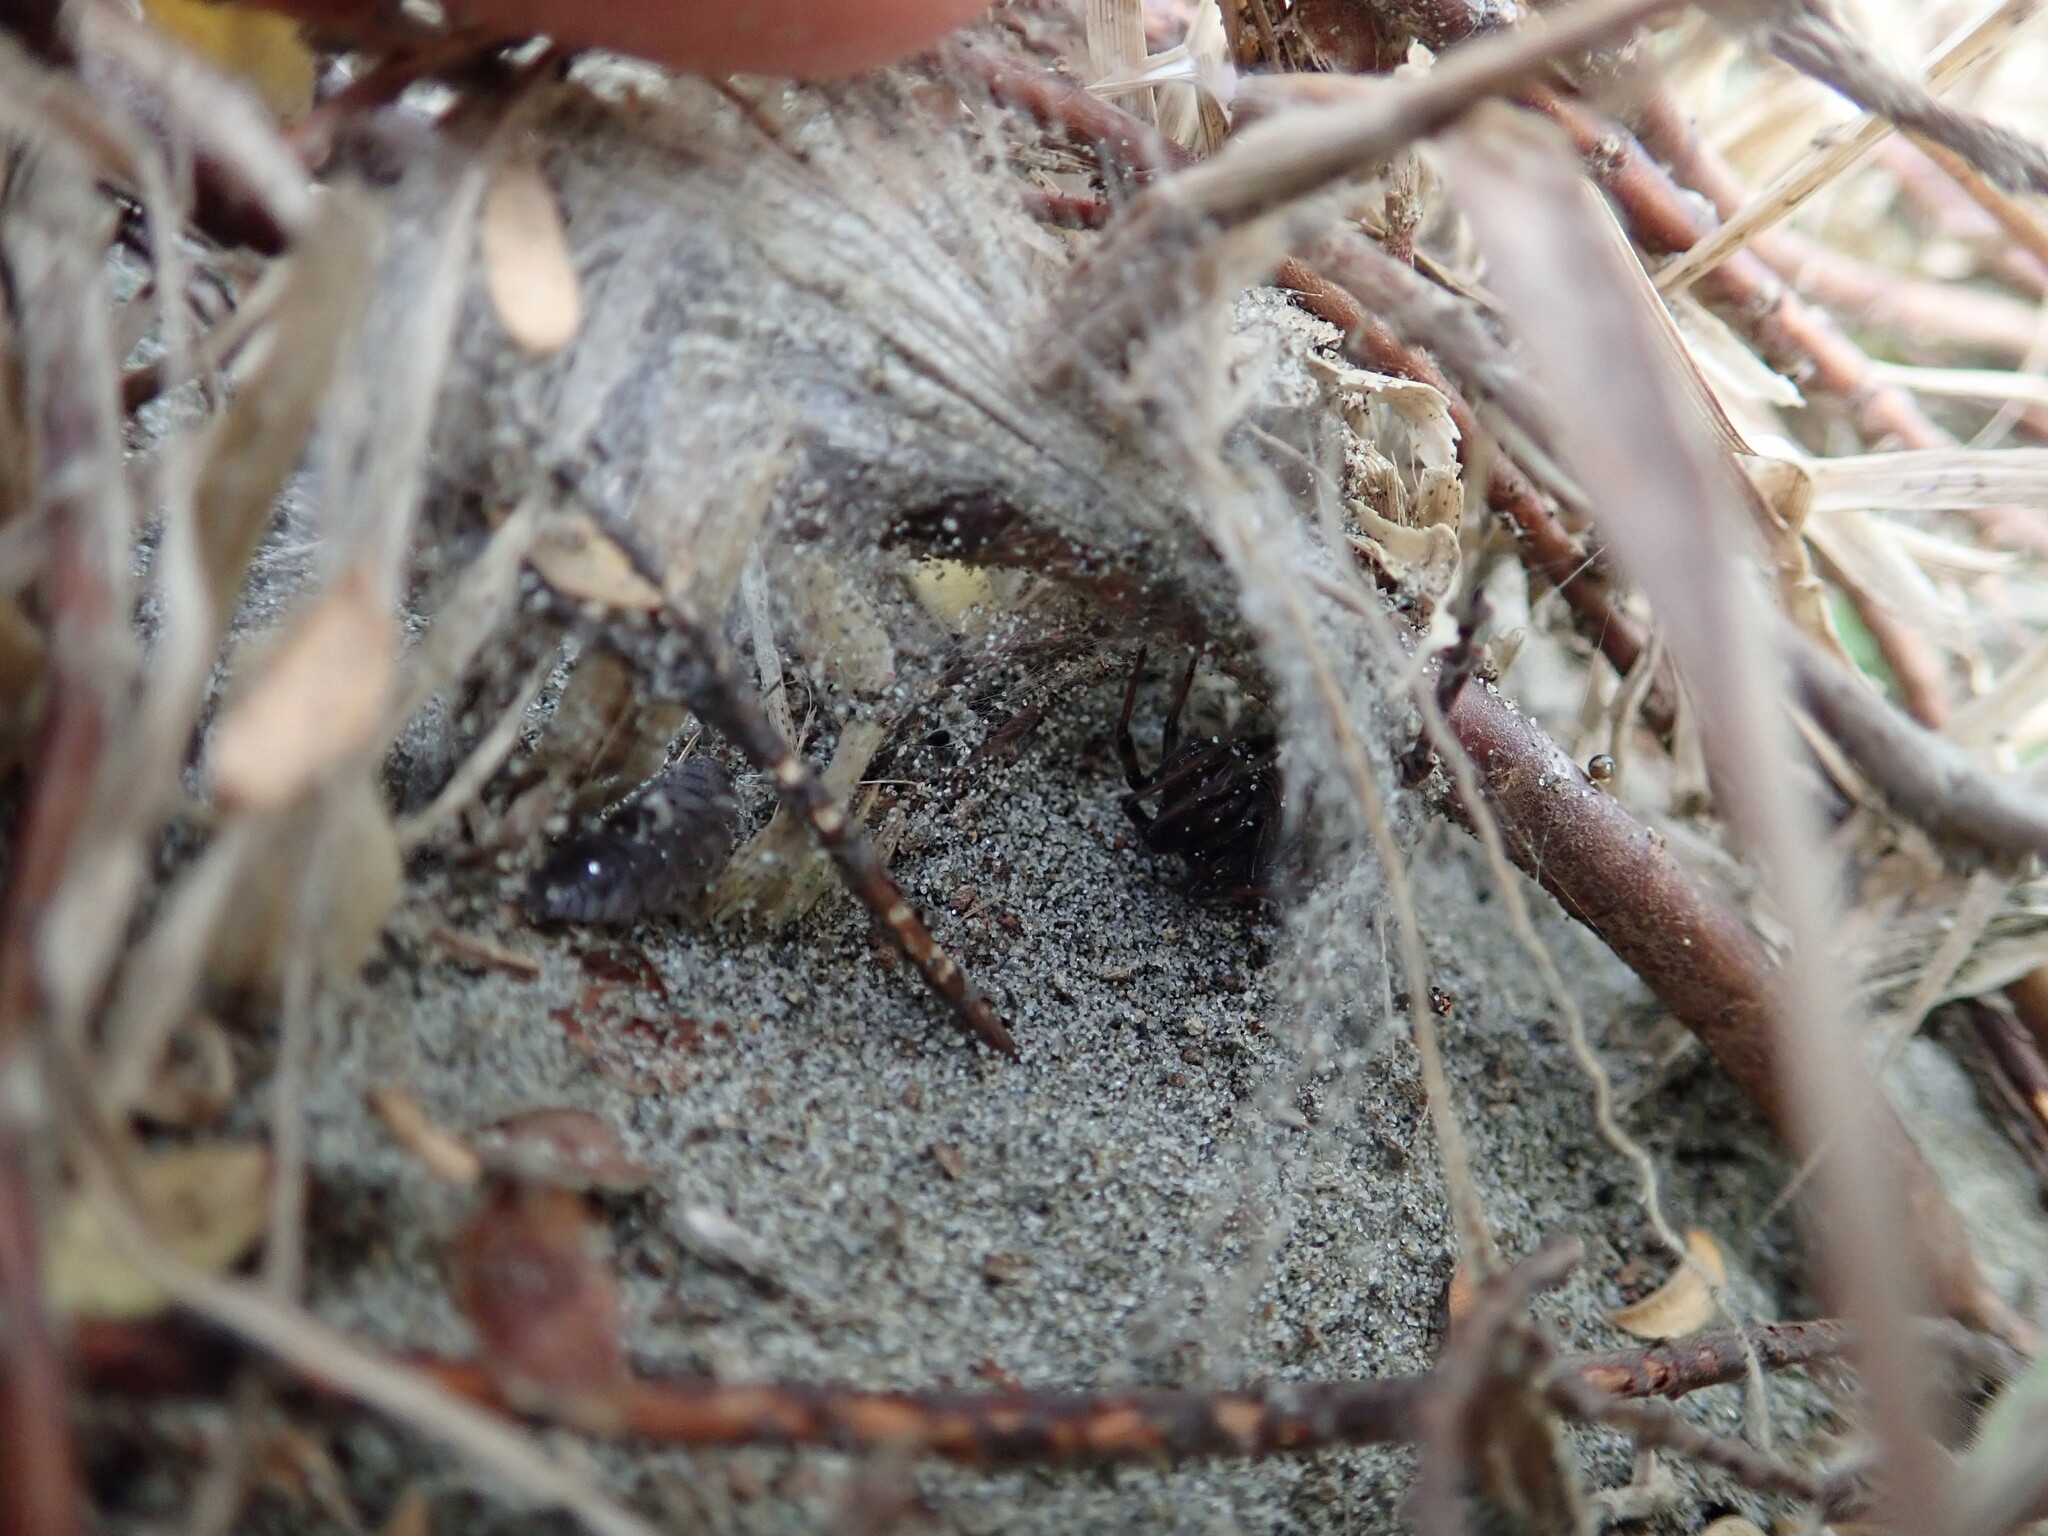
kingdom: Animalia
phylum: Arthropoda
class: Arachnida
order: Araneae
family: Theridiidae
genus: Latrodectus
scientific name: Latrodectus katipo
